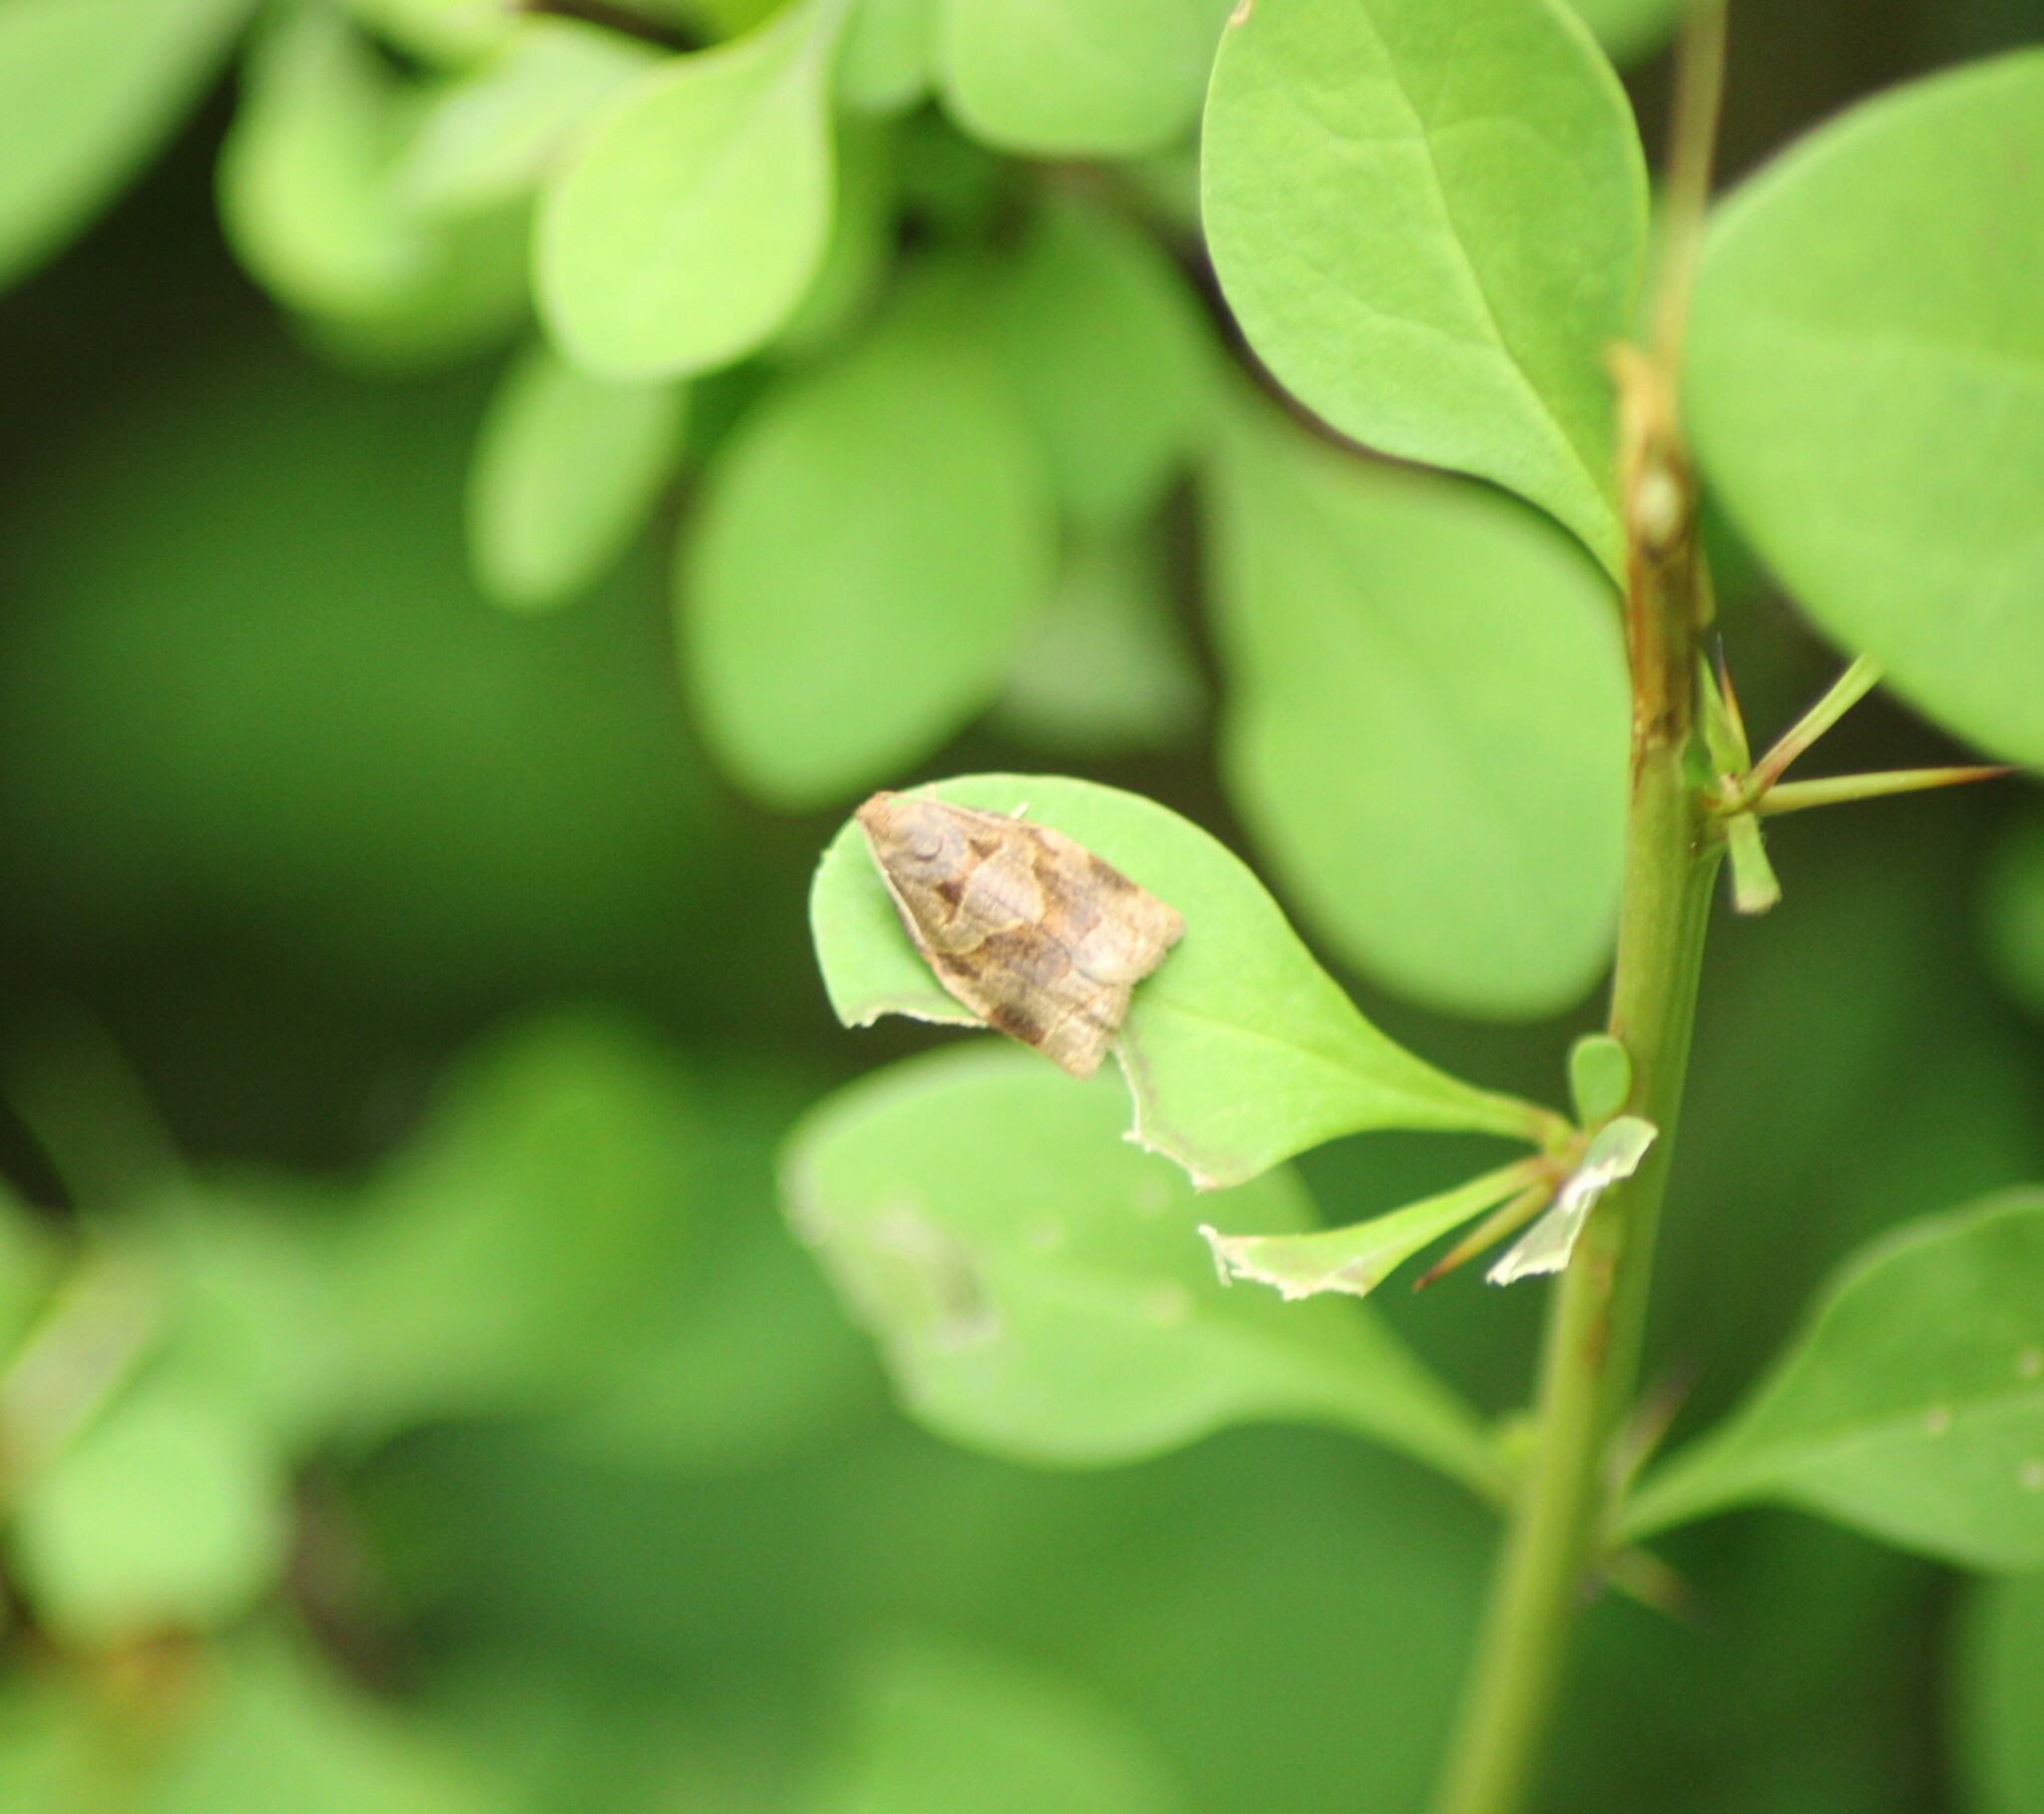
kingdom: Animalia
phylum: Arthropoda
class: Insecta
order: Lepidoptera
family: Tortricidae
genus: Archips
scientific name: Archips rosana
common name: Rose tortrix
